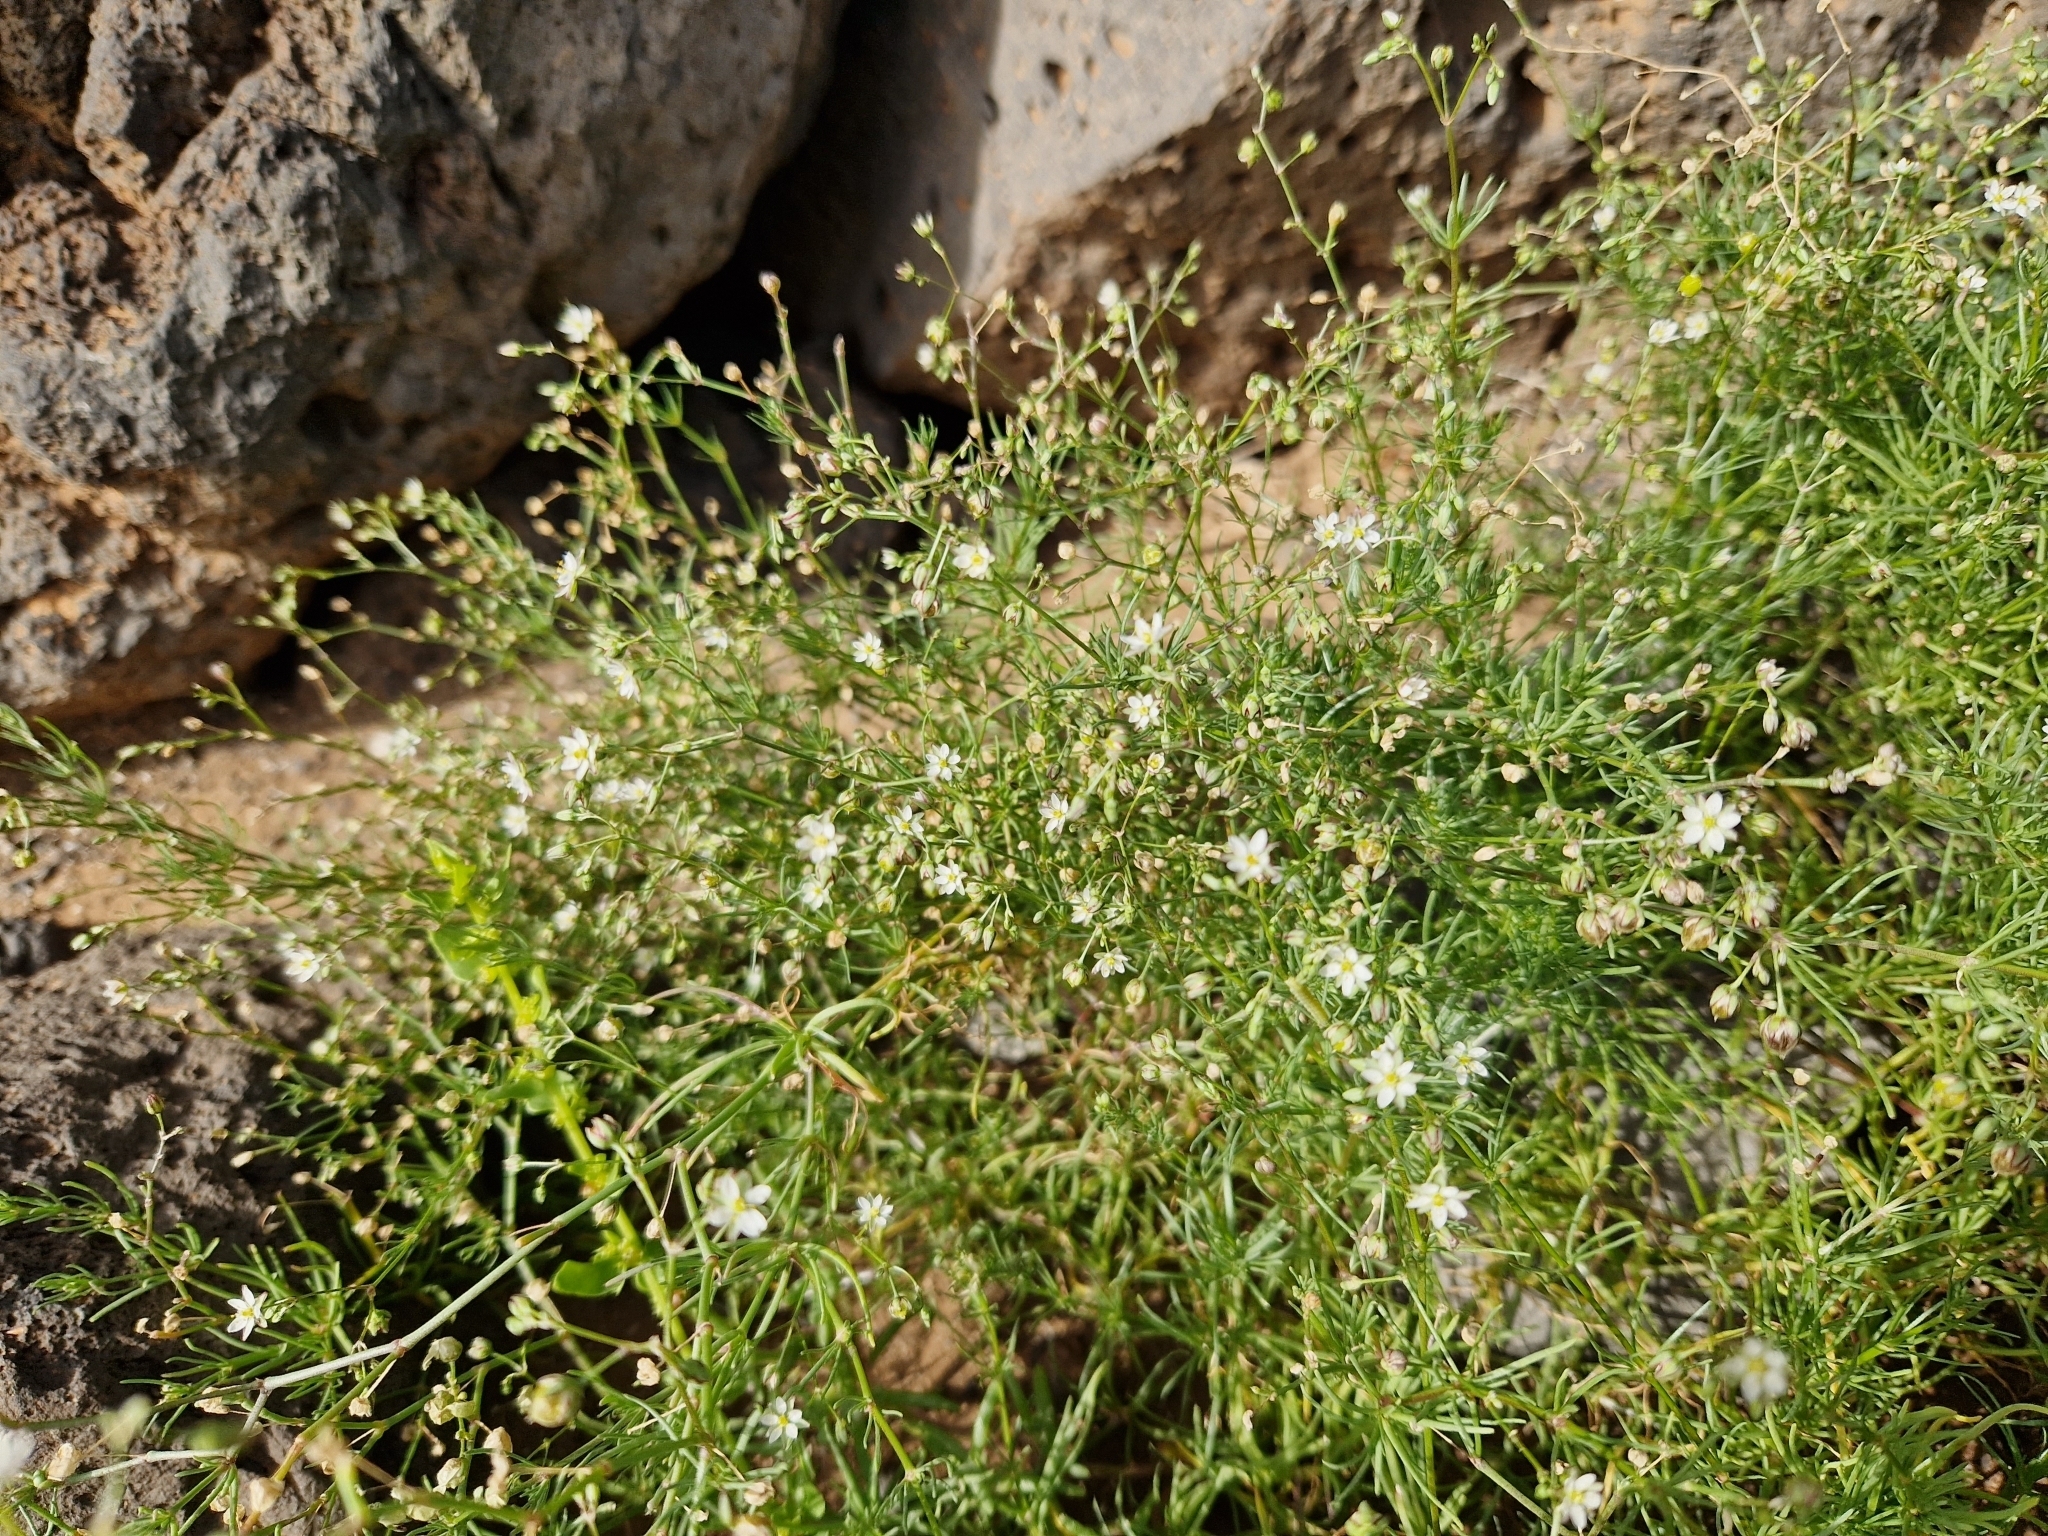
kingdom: Plantae
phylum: Tracheophyta
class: Magnoliopsida
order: Caryophyllales
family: Caryophyllaceae
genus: Spergularia
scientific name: Spergularia flaccida
